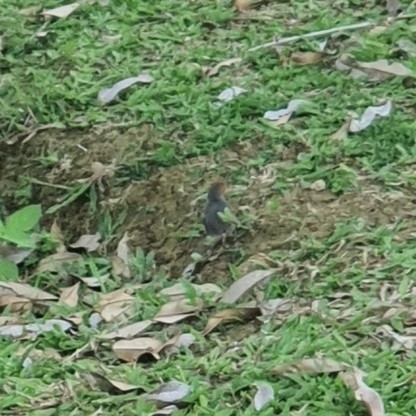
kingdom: Animalia
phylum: Chordata
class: Aves
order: Passeriformes
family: Cisticolidae
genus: Orthotomus
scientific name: Orthotomus ruficeps
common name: Ashy tailorbird
